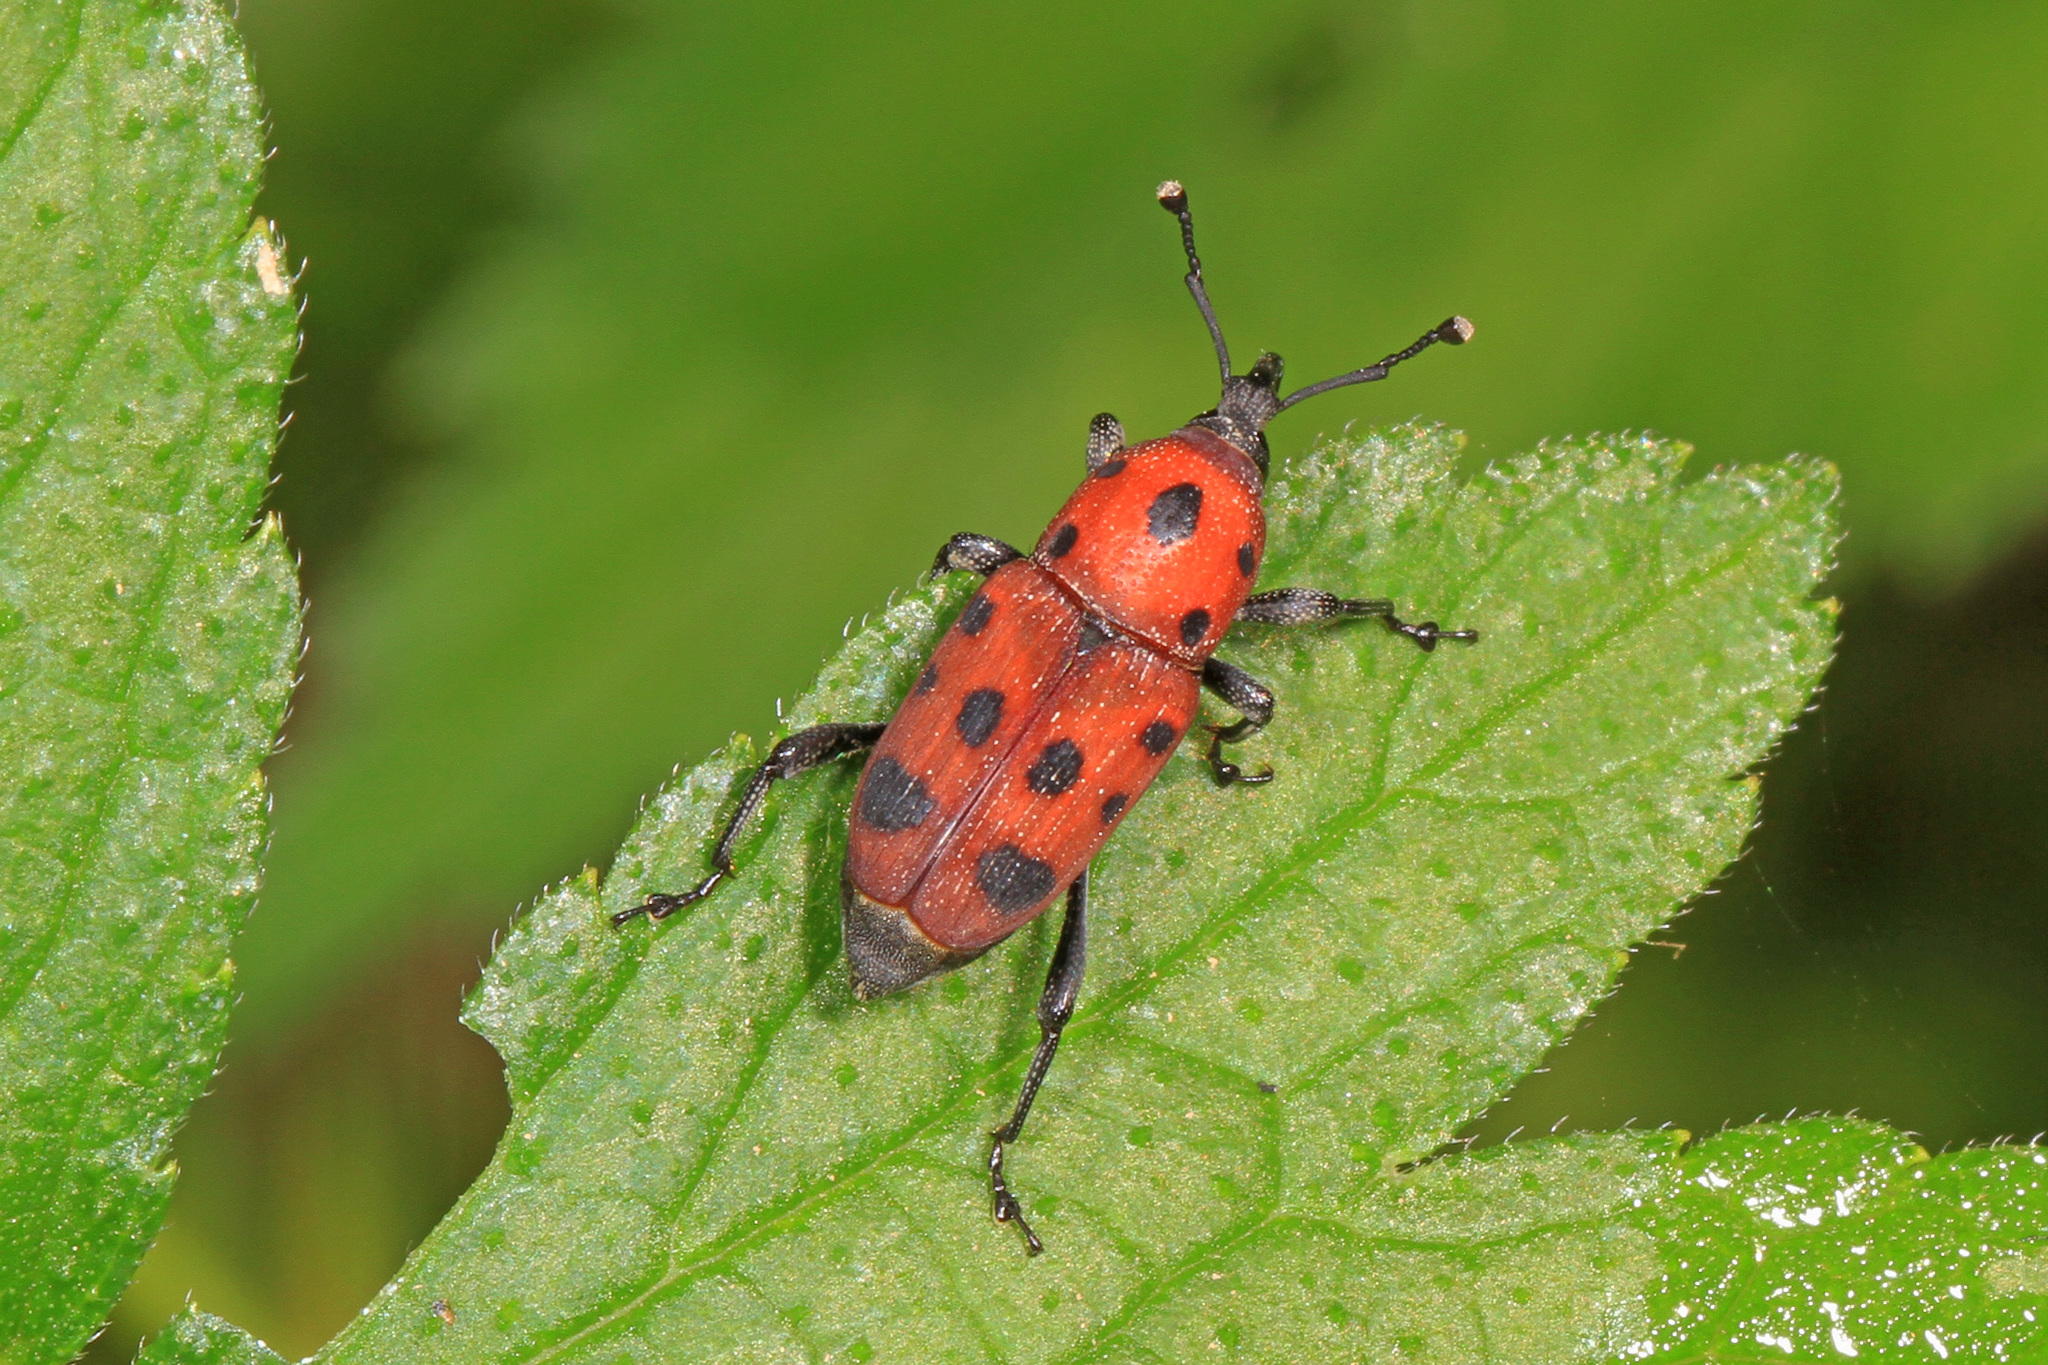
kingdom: Animalia
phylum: Arthropoda
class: Insecta
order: Coleoptera
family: Dryophthoridae
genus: Rhodobaenus
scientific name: Rhodobaenus tredecimpunctatus
